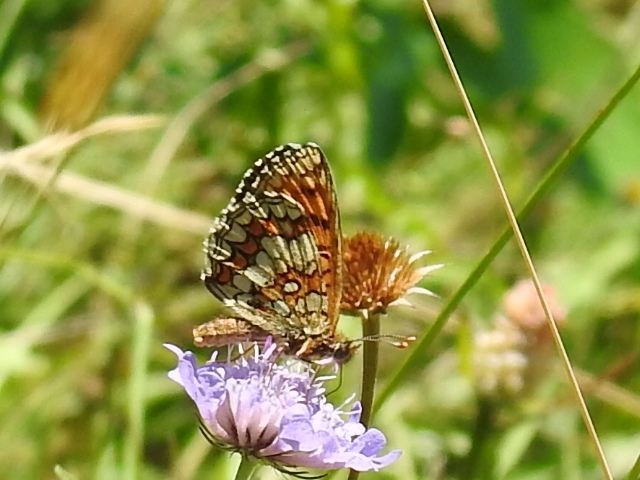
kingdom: Animalia
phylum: Arthropoda
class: Insecta
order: Lepidoptera
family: Nymphalidae
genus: Mellicta
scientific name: Mellicta athalia
